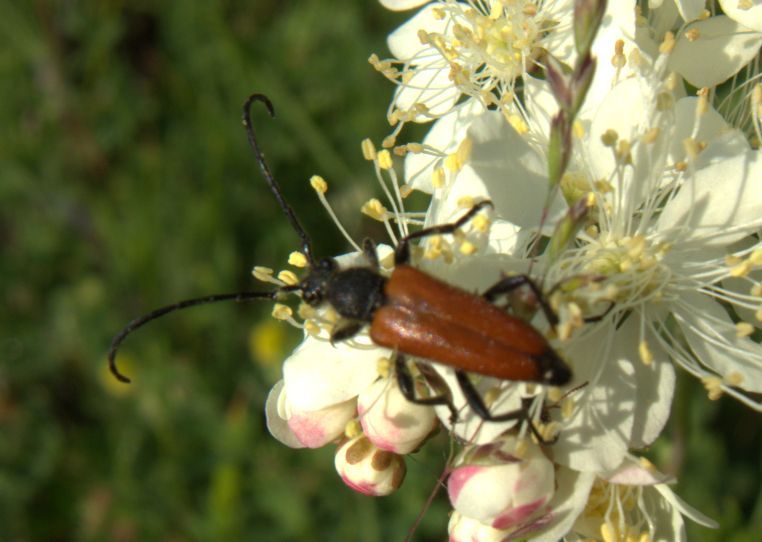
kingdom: Animalia
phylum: Arthropoda
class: Insecta
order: Coleoptera
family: Cerambycidae
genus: Paracorymbia
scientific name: Paracorymbia pallens
